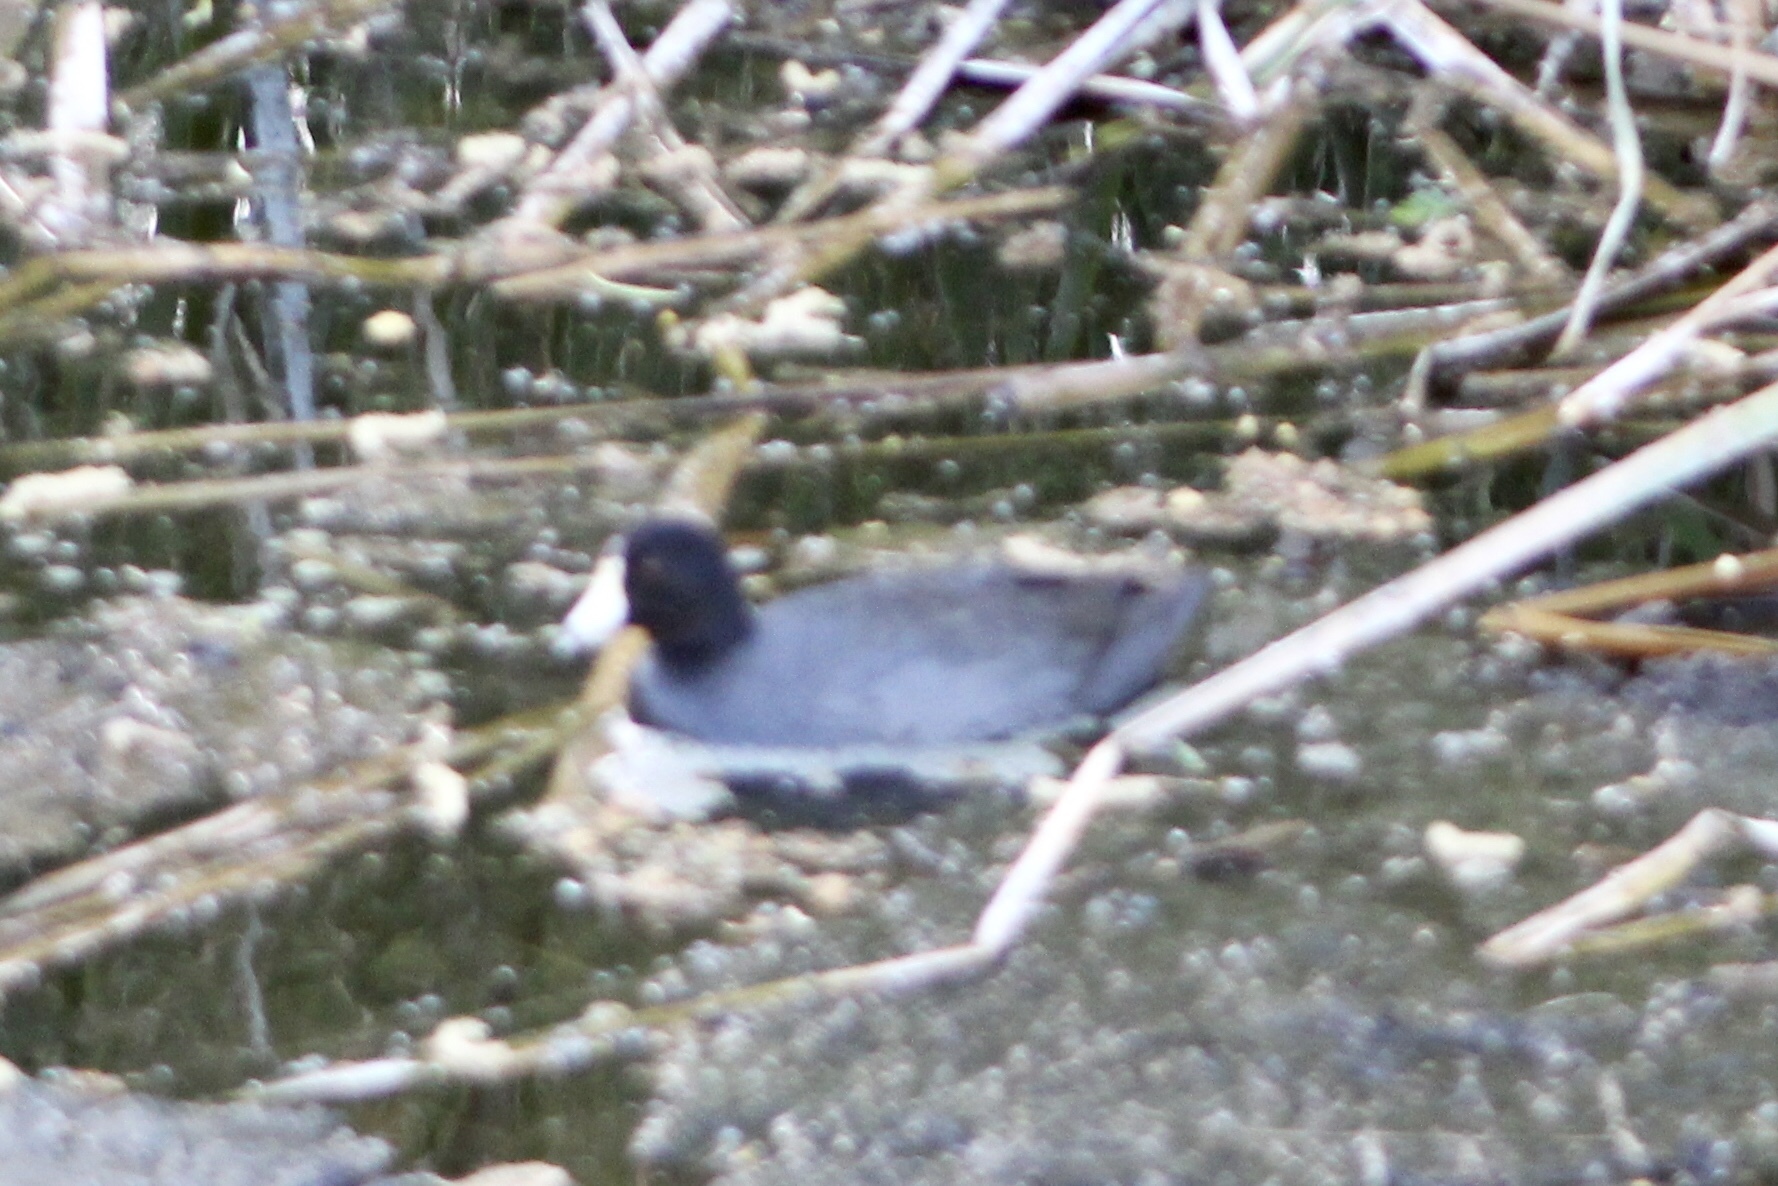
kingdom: Animalia
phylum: Chordata
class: Aves
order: Gruiformes
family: Rallidae
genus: Fulica
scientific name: Fulica americana
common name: American coot
